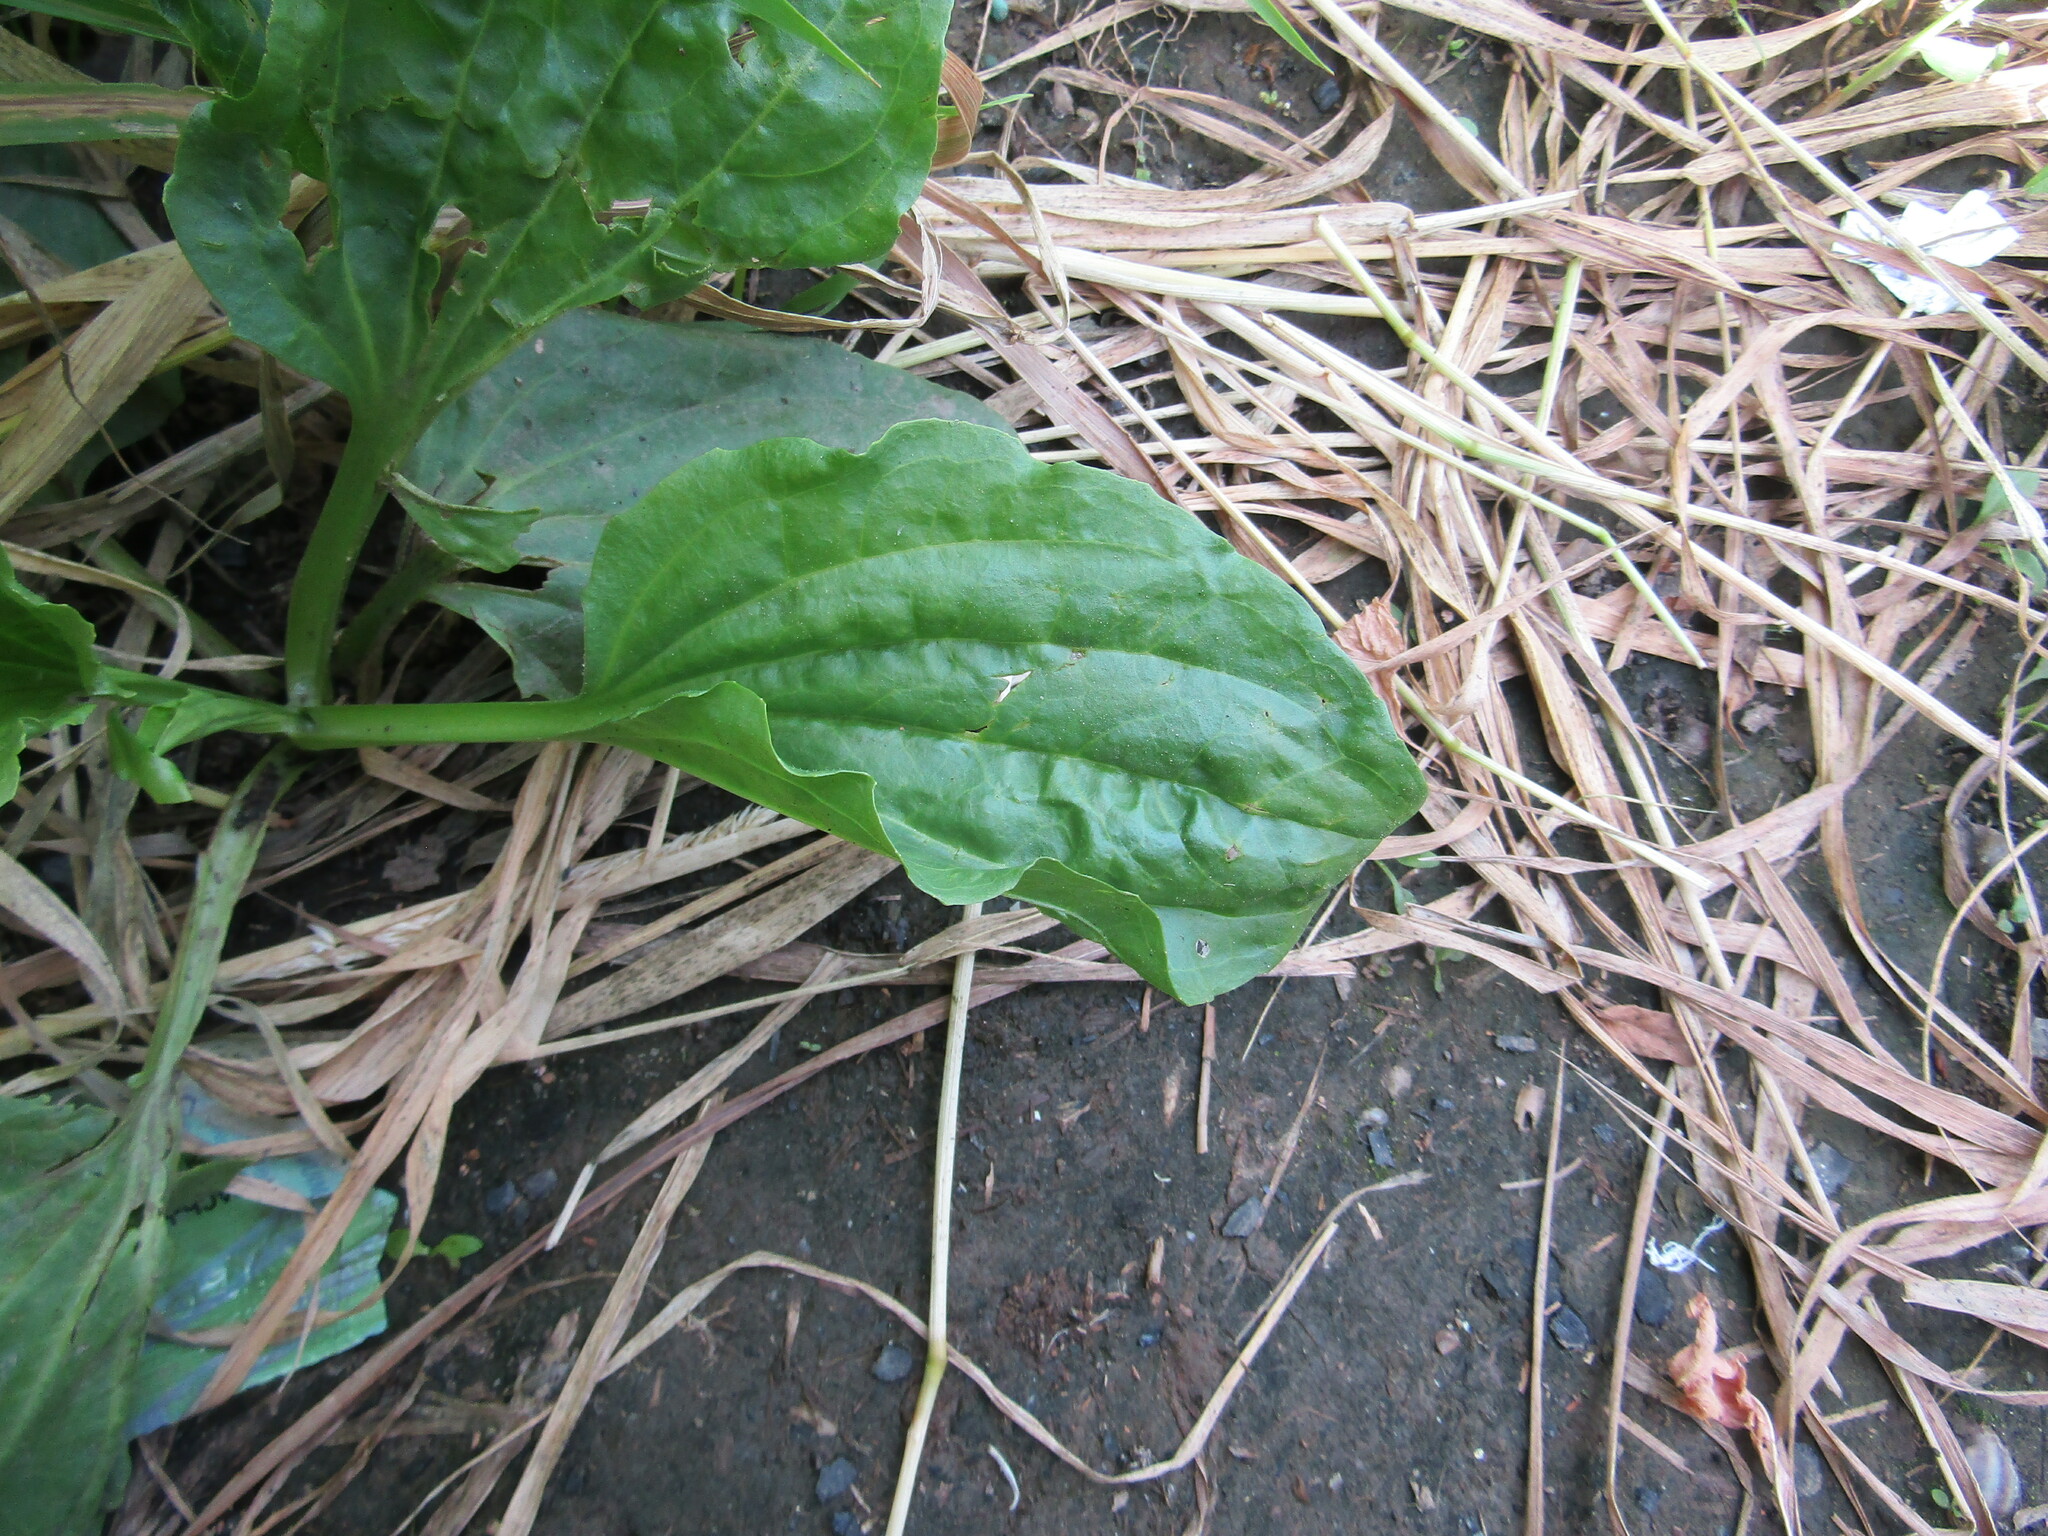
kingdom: Plantae
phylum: Tracheophyta
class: Magnoliopsida
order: Lamiales
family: Plantaginaceae
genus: Plantago
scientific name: Plantago major
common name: Common plantain
